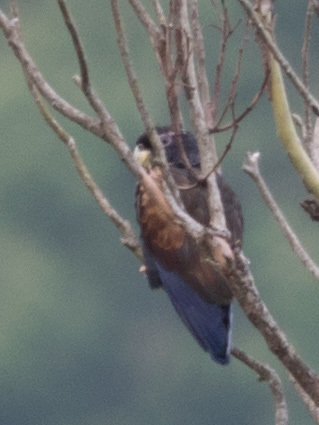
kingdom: Animalia
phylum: Chordata
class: Aves
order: Psittaciformes
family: Psittacidae
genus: Pionus
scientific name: Pionus chalcopterus
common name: Bronze-winged parrot
